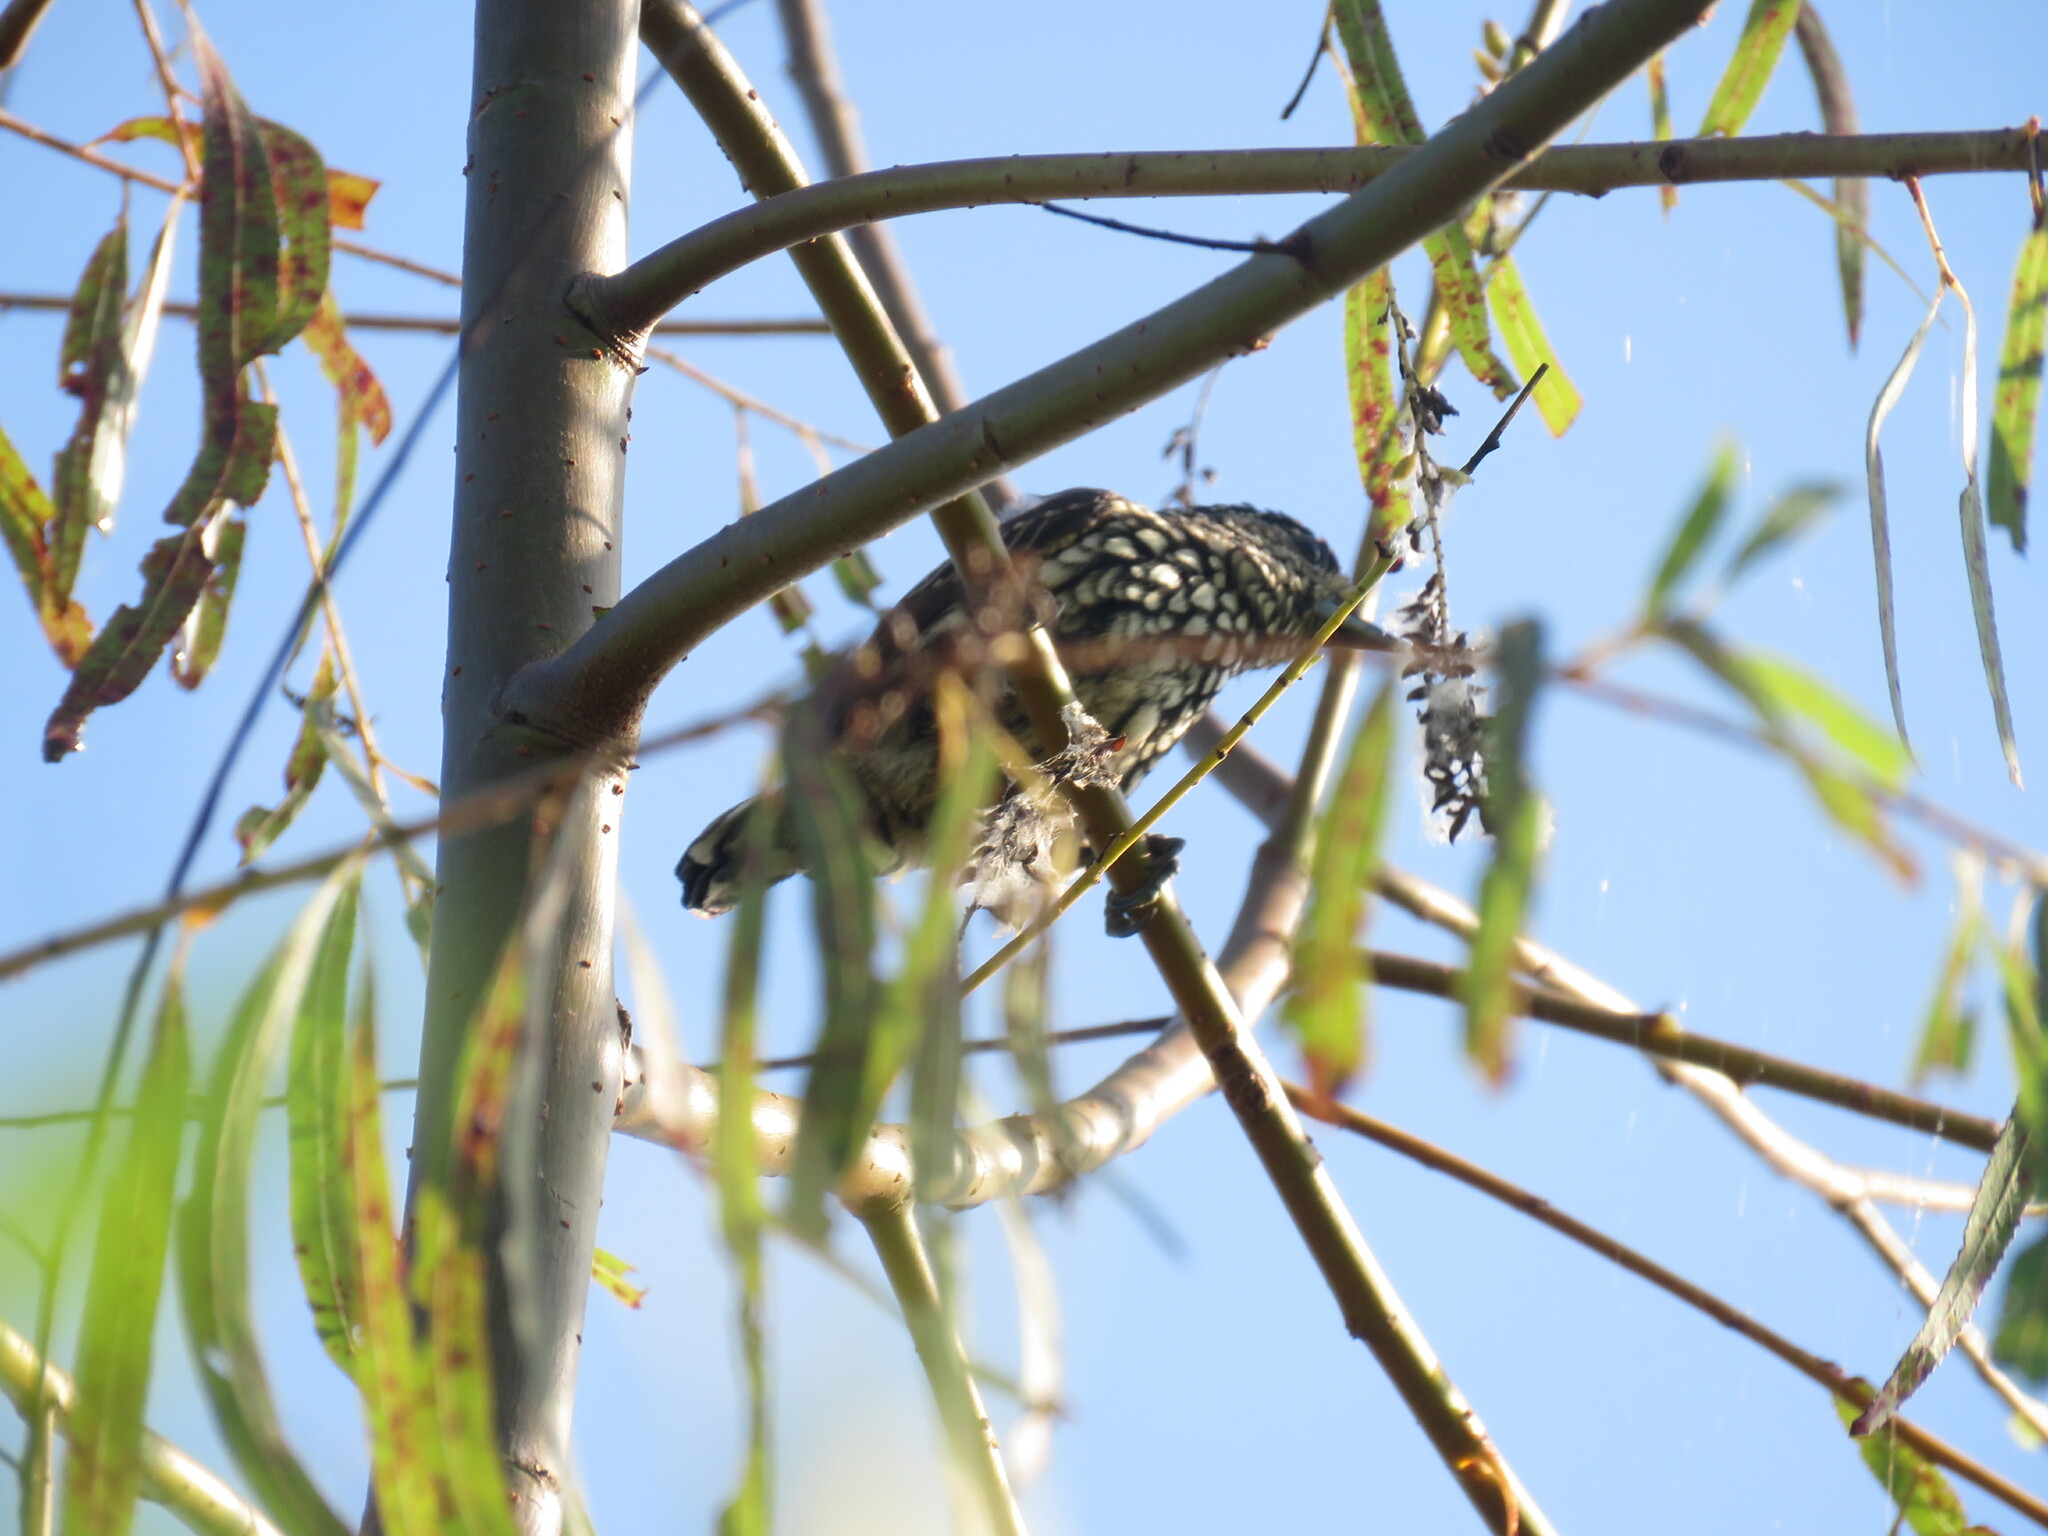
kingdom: Animalia
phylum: Chordata
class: Aves
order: Piciformes
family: Picidae
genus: Picumnus
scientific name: Picumnus albosquamatus
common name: White-wedged piculet
